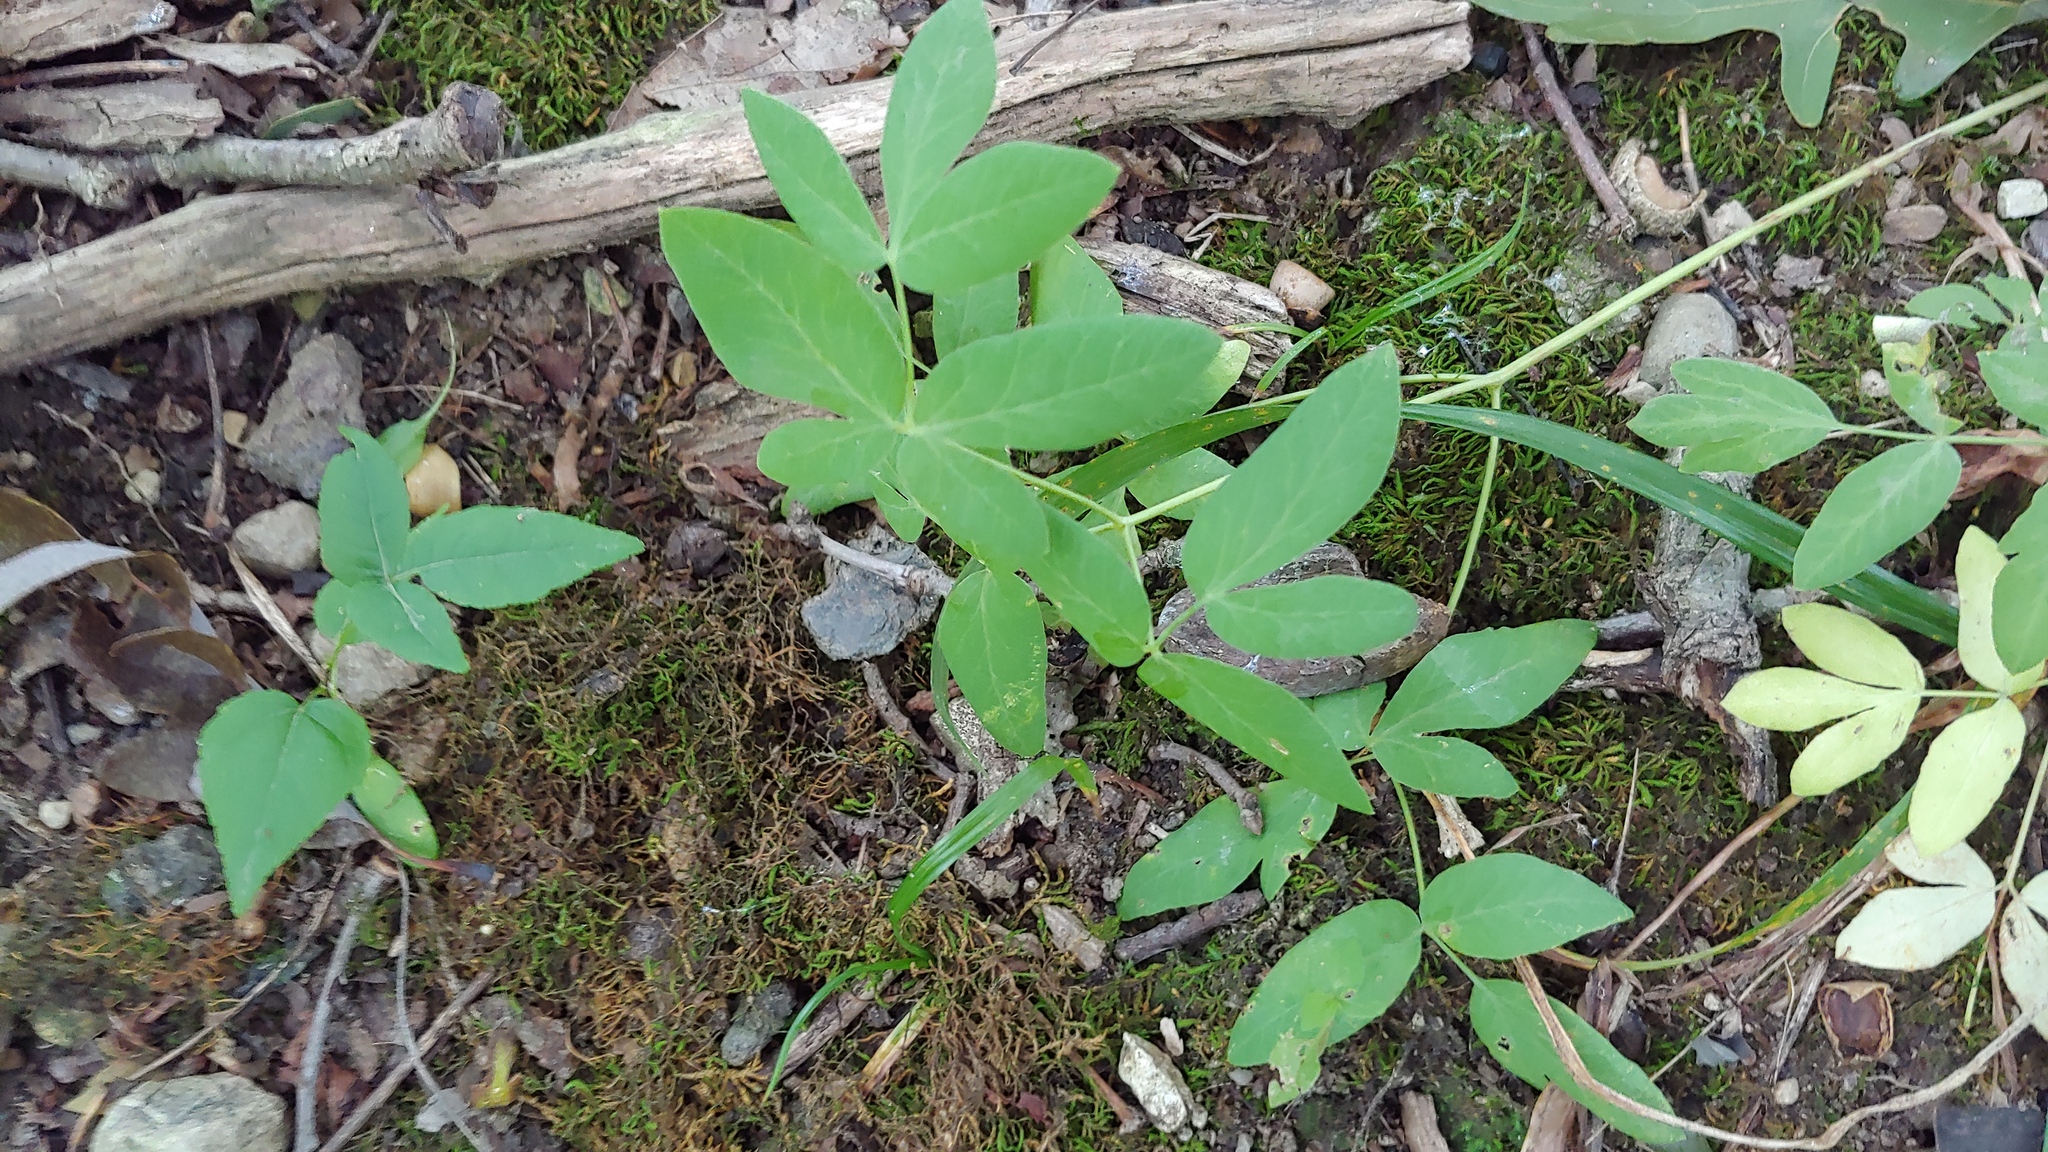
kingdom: Plantae
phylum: Tracheophyta
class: Magnoliopsida
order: Apiales
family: Apiaceae
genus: Taenidia
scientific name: Taenidia integerrima
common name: Golden alexander
